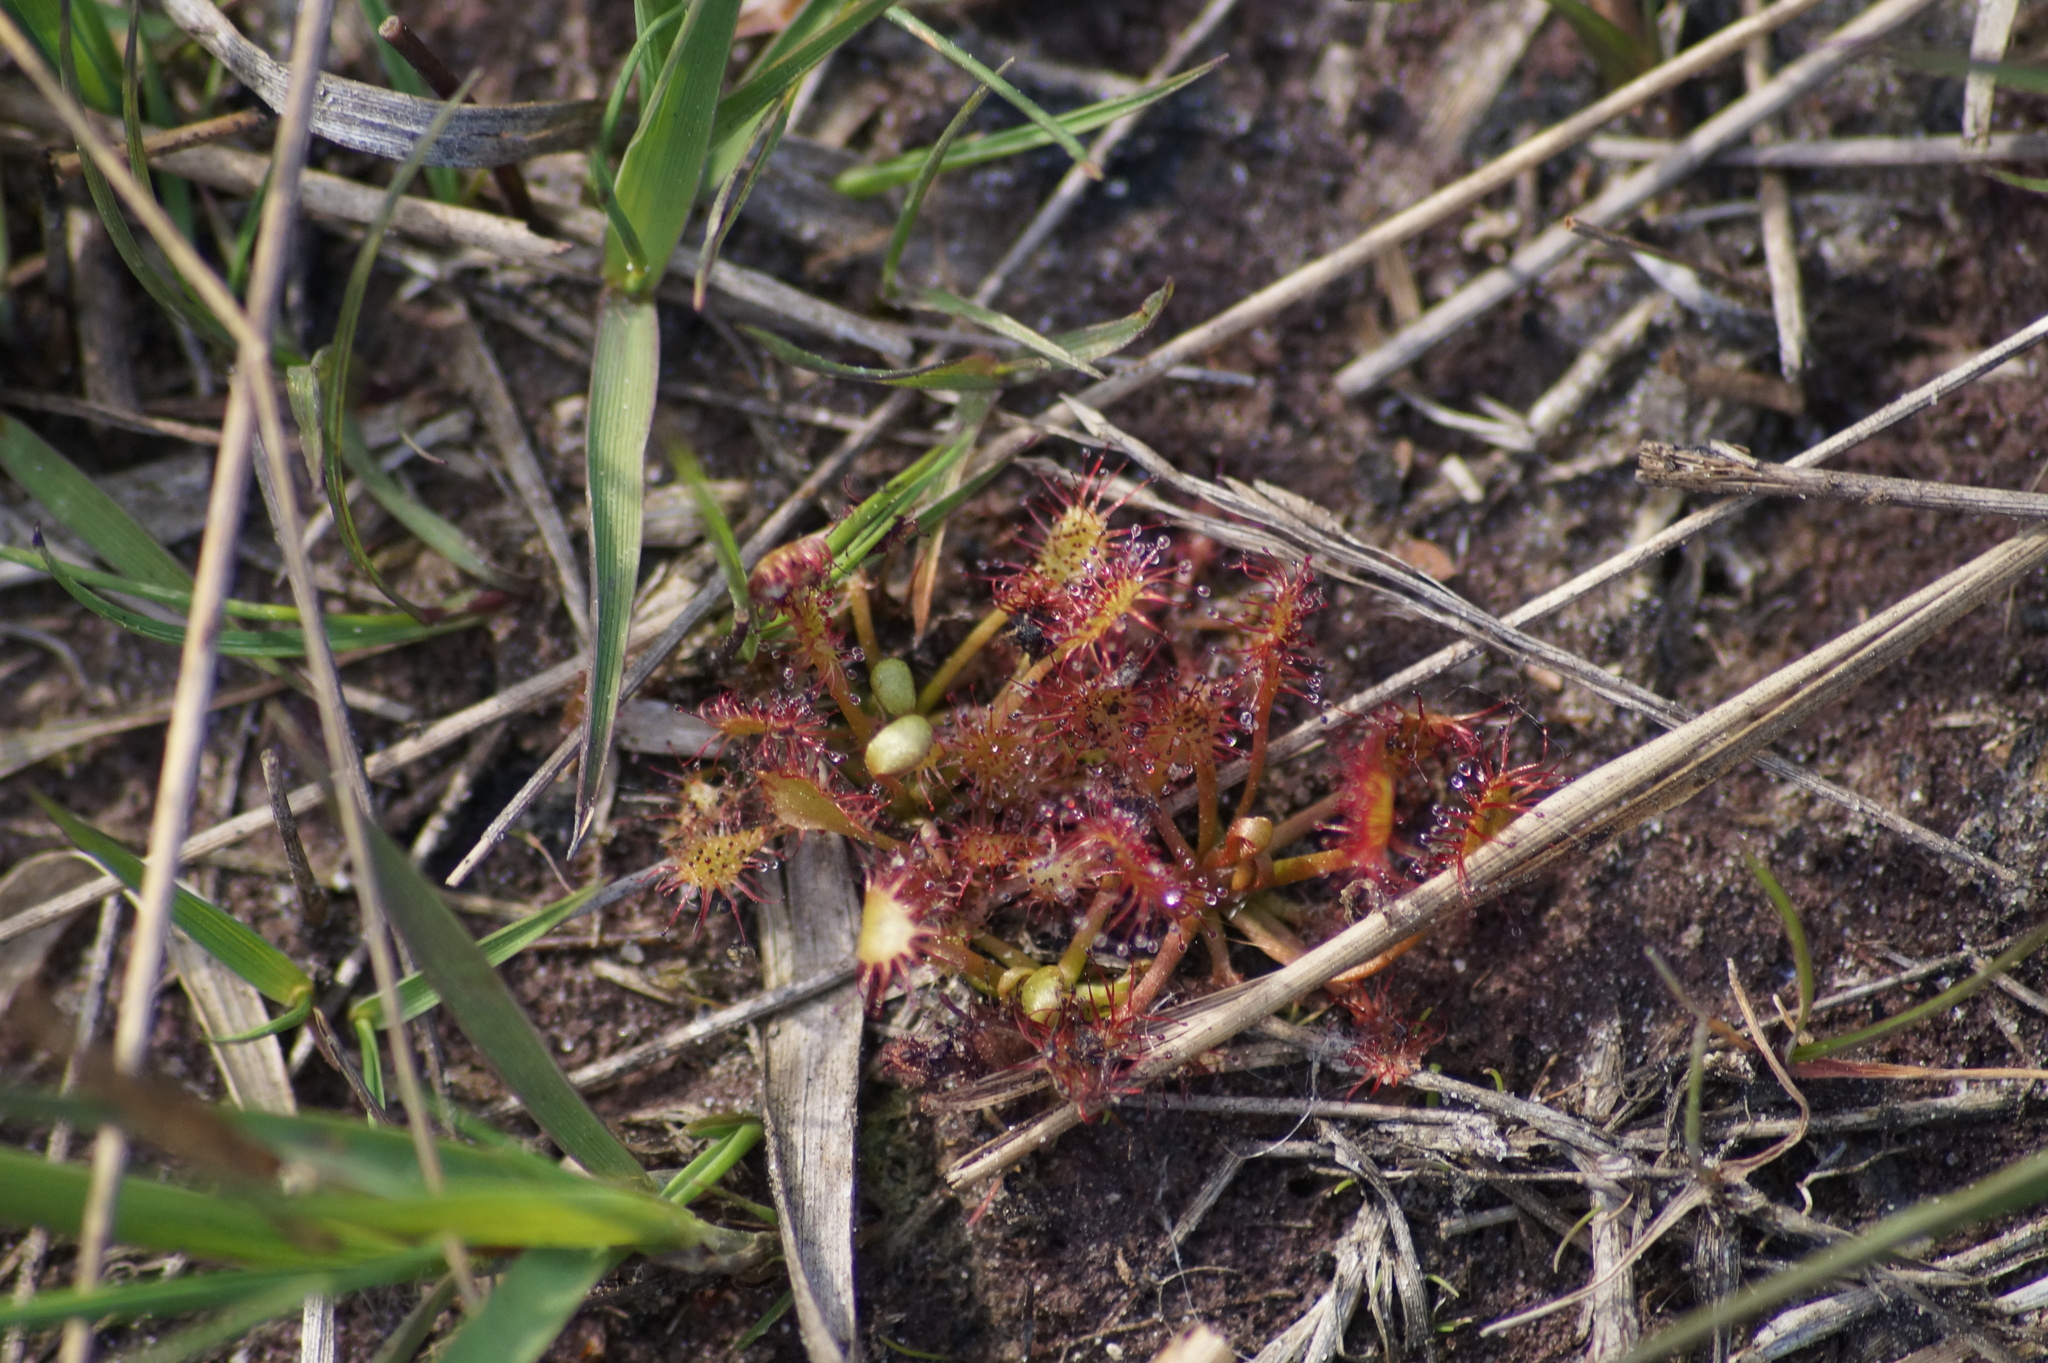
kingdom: Plantae
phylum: Tracheophyta
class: Magnoliopsida
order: Caryophyllales
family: Droseraceae
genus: Drosera
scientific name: Drosera intermedia
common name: Oblong-leaved sundew
